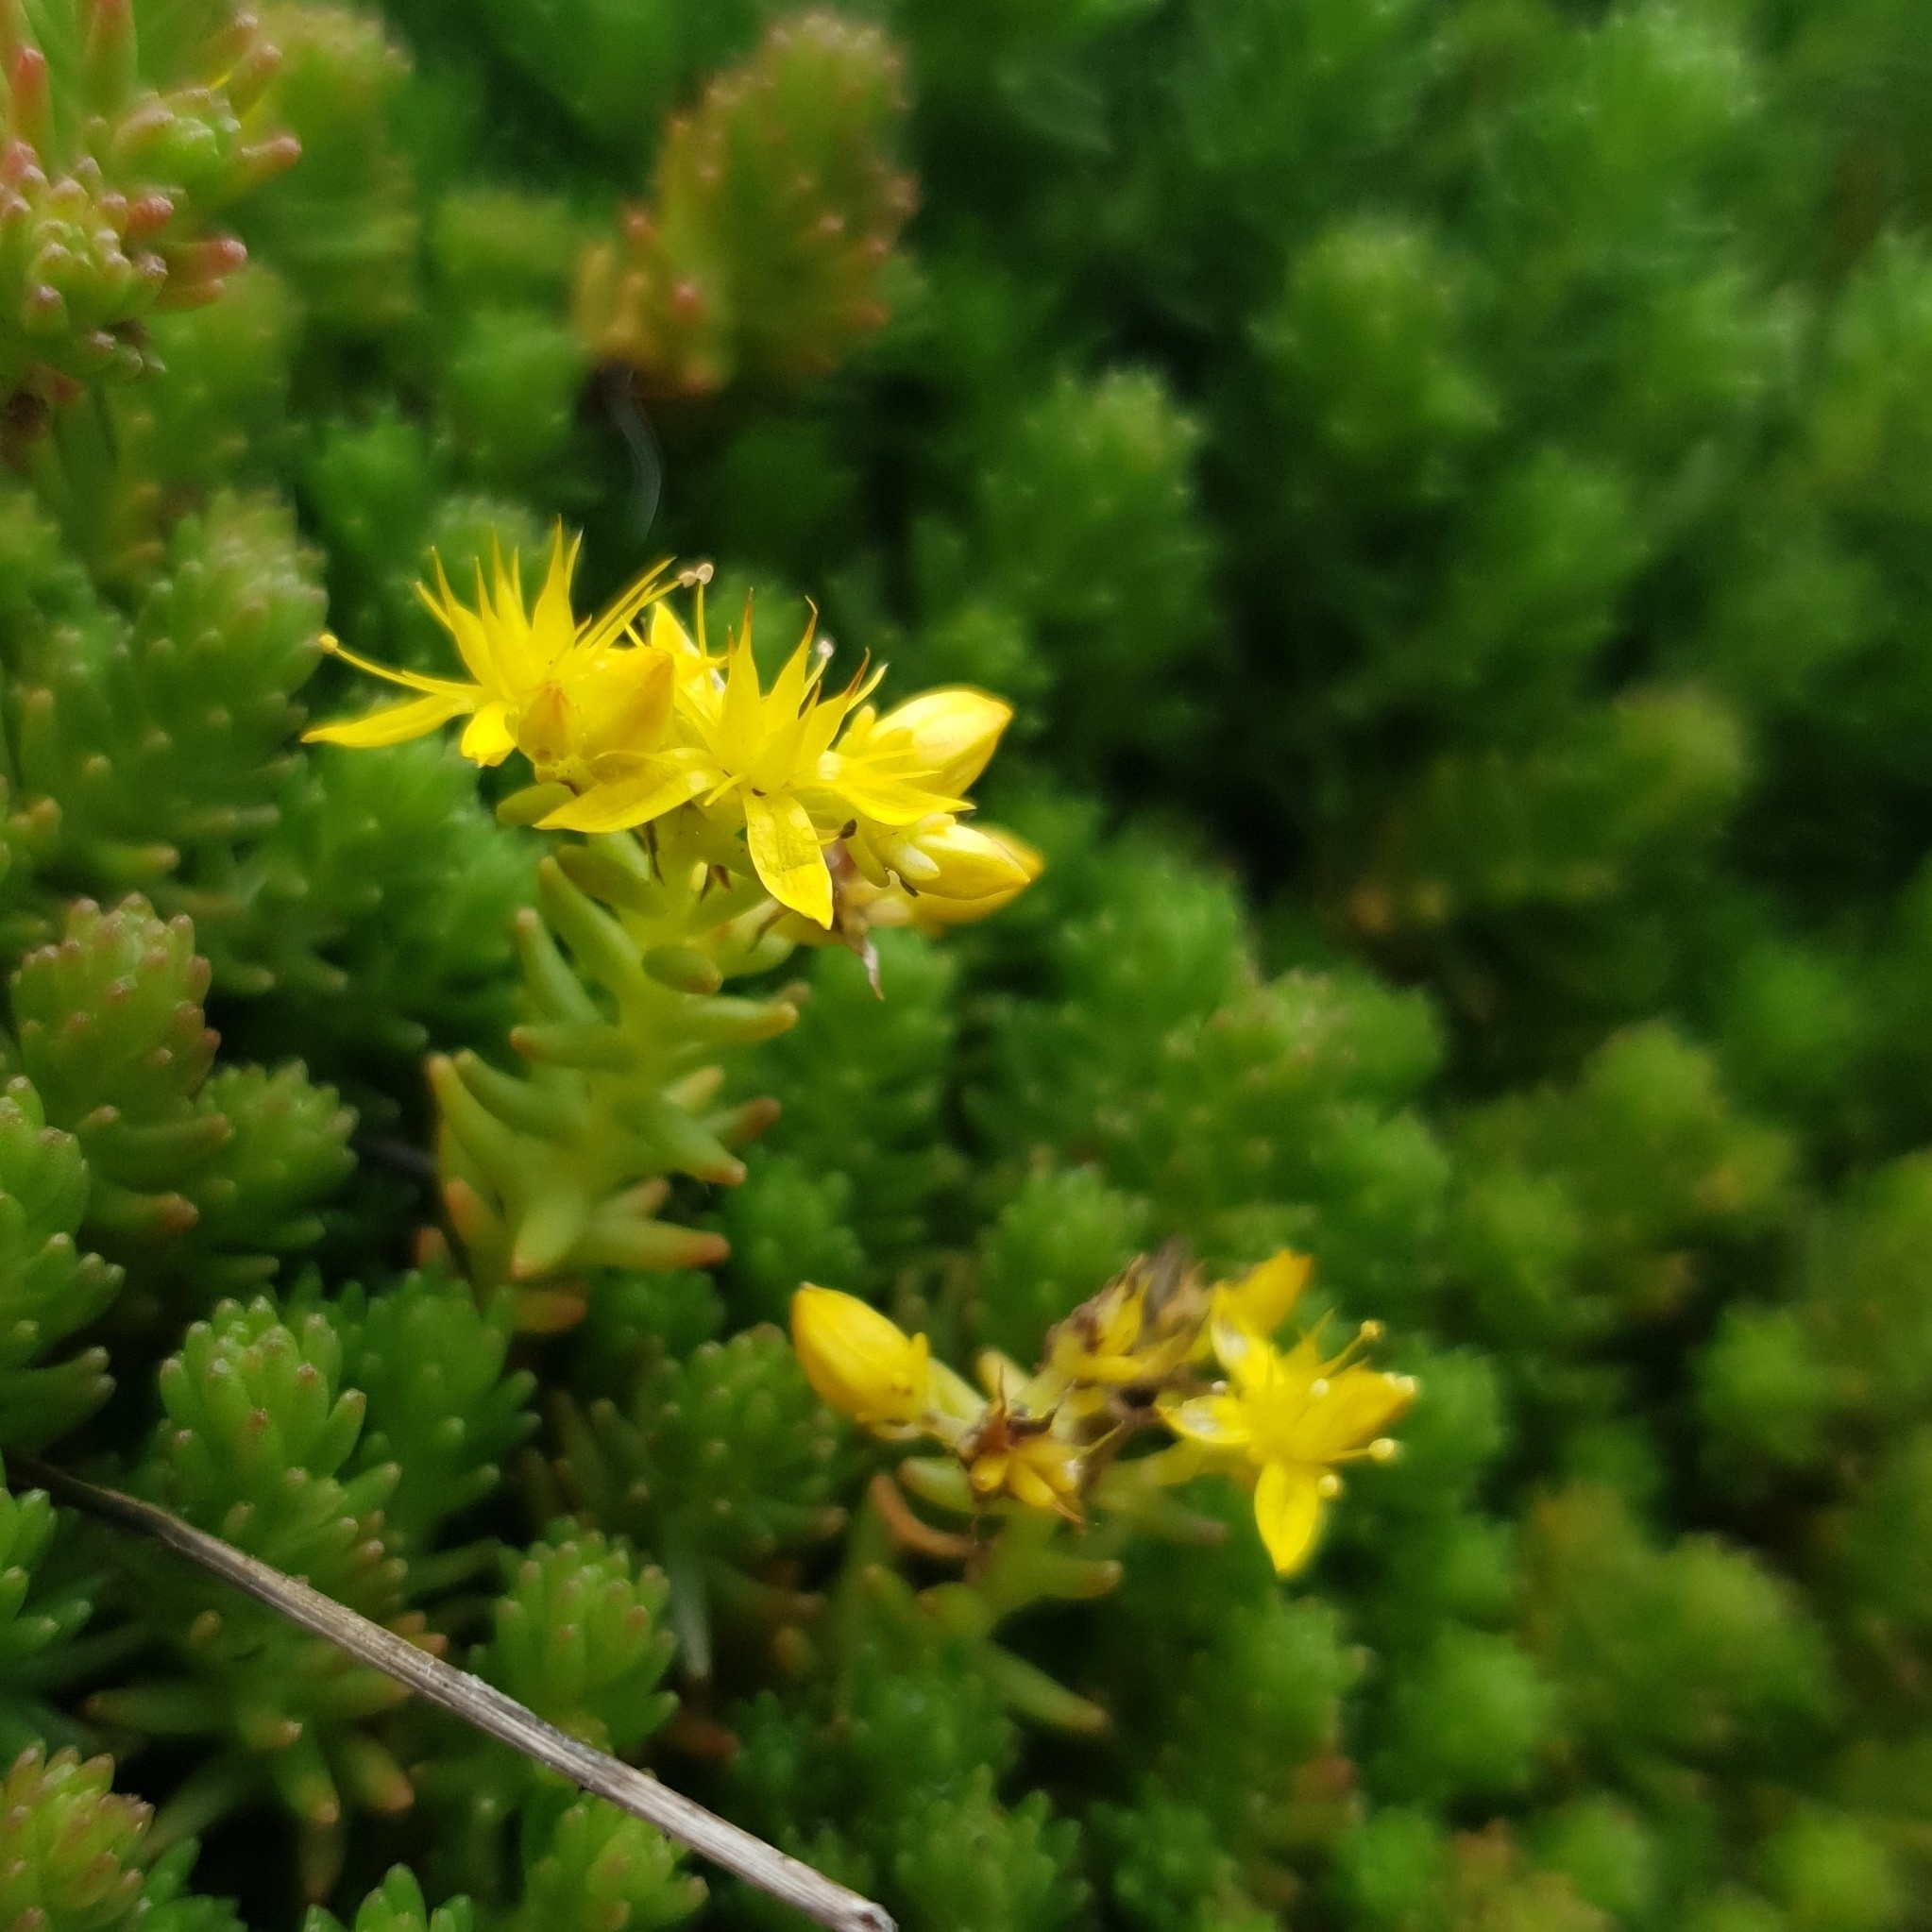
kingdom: Plantae
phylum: Tracheophyta
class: Magnoliopsida
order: Saxifragales
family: Crassulaceae
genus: Sedum
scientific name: Sedum sexangulare
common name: Tasteless stonecrop
